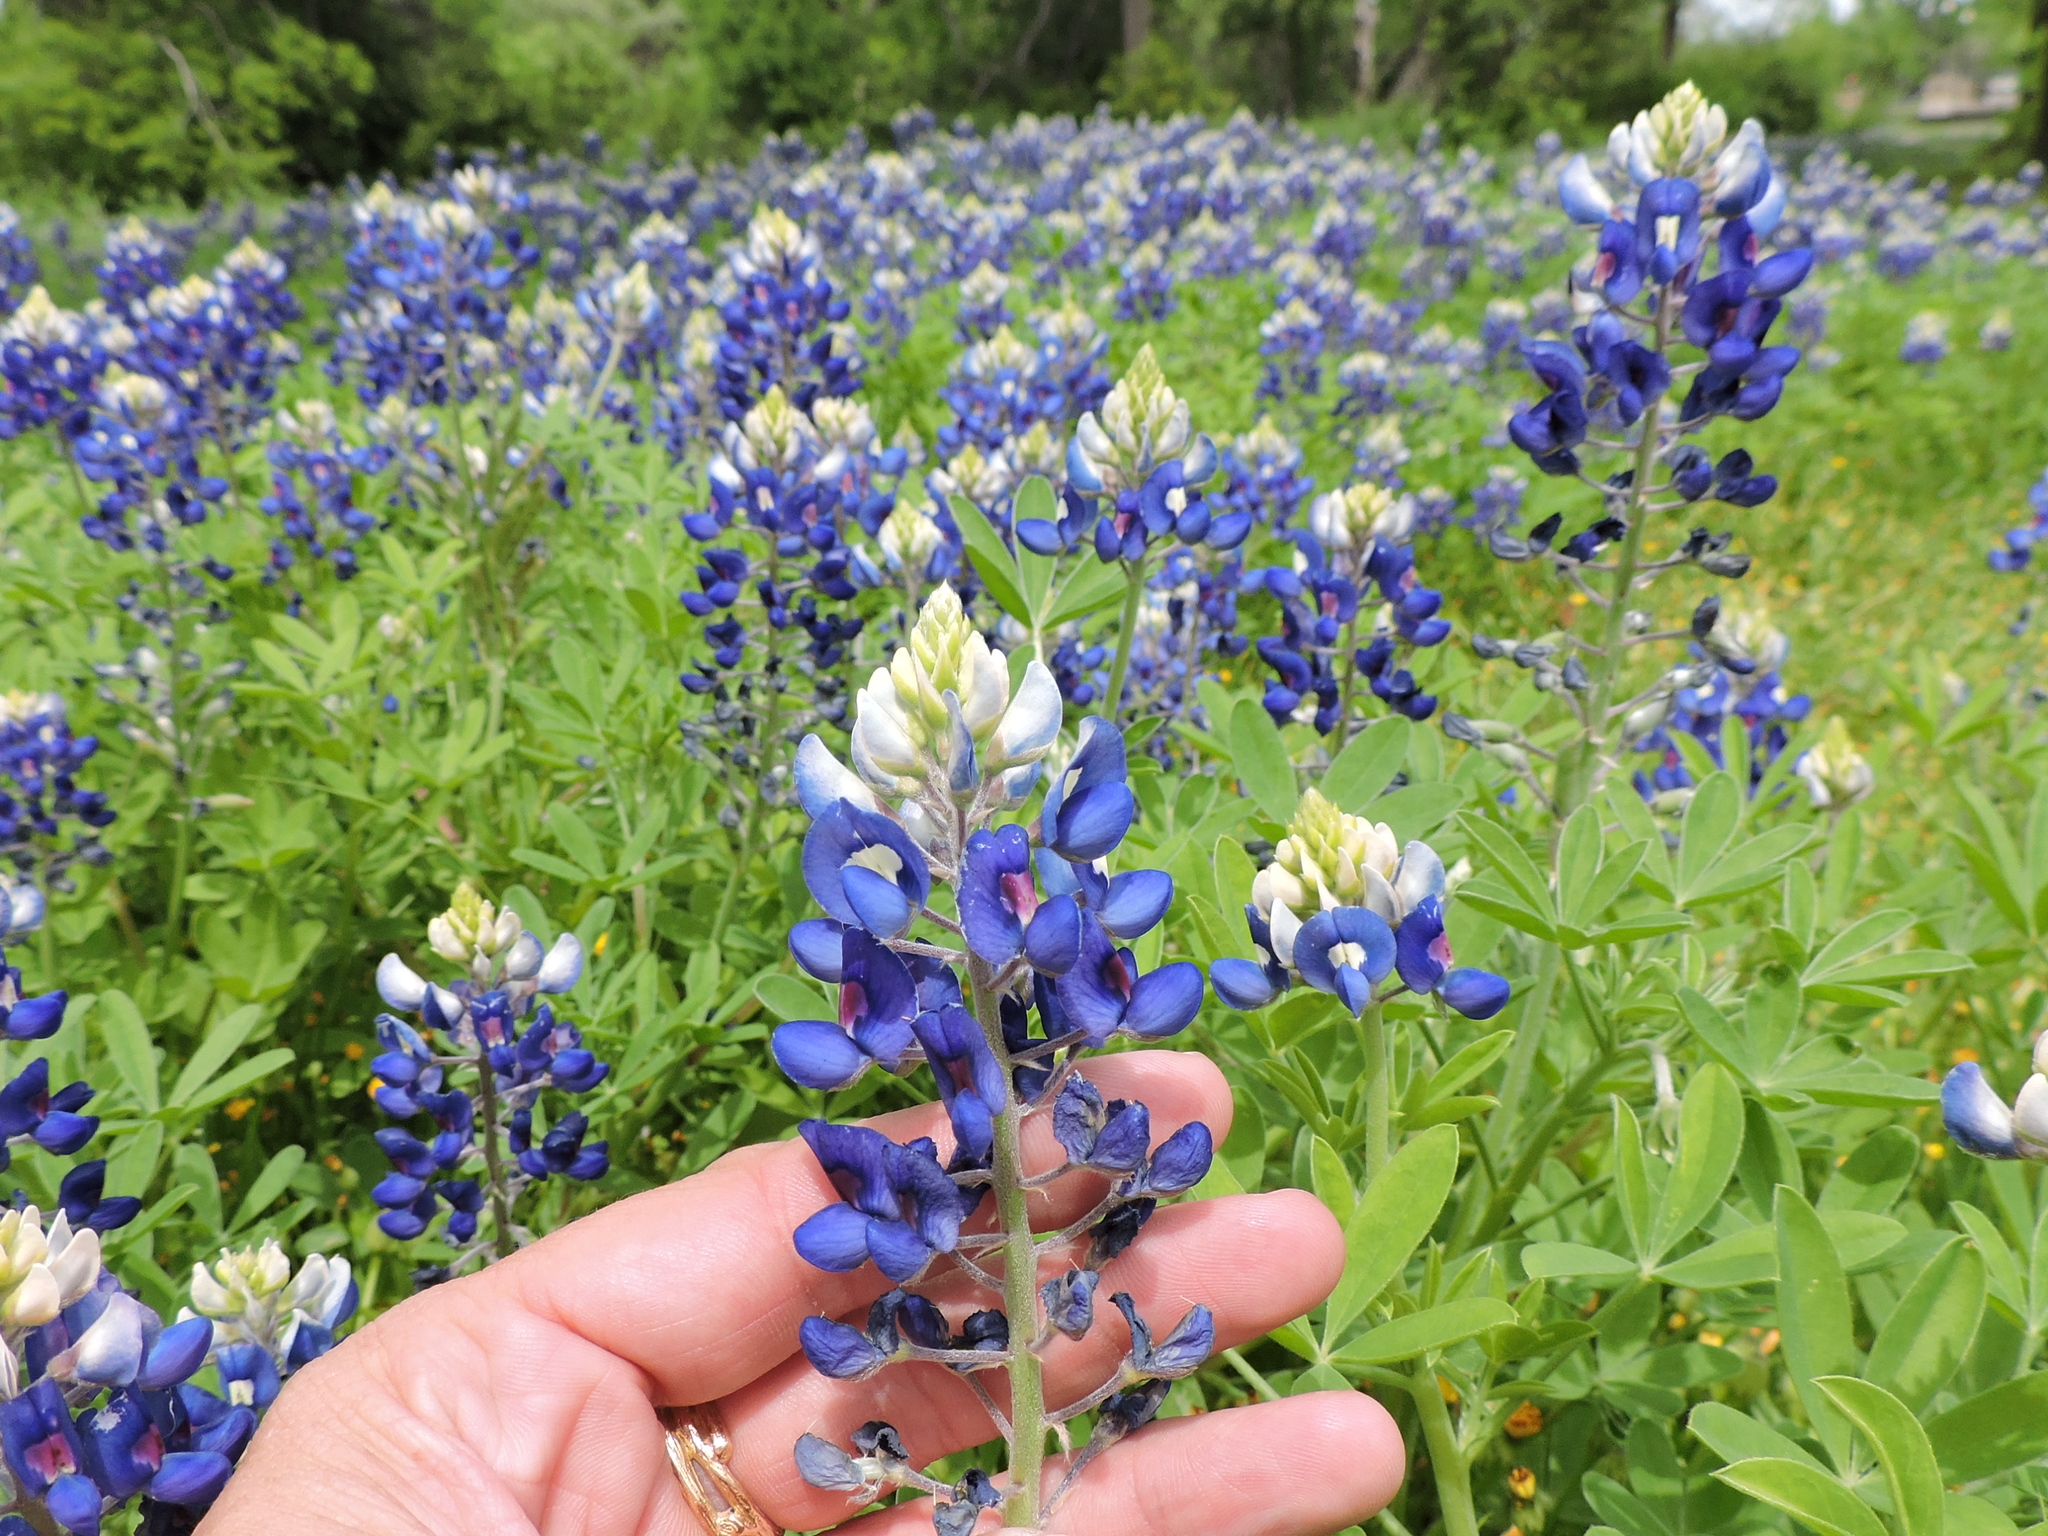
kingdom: Plantae
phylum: Tracheophyta
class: Magnoliopsida
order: Fabales
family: Fabaceae
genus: Lupinus
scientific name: Lupinus texensis
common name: Texas bluebonnet
